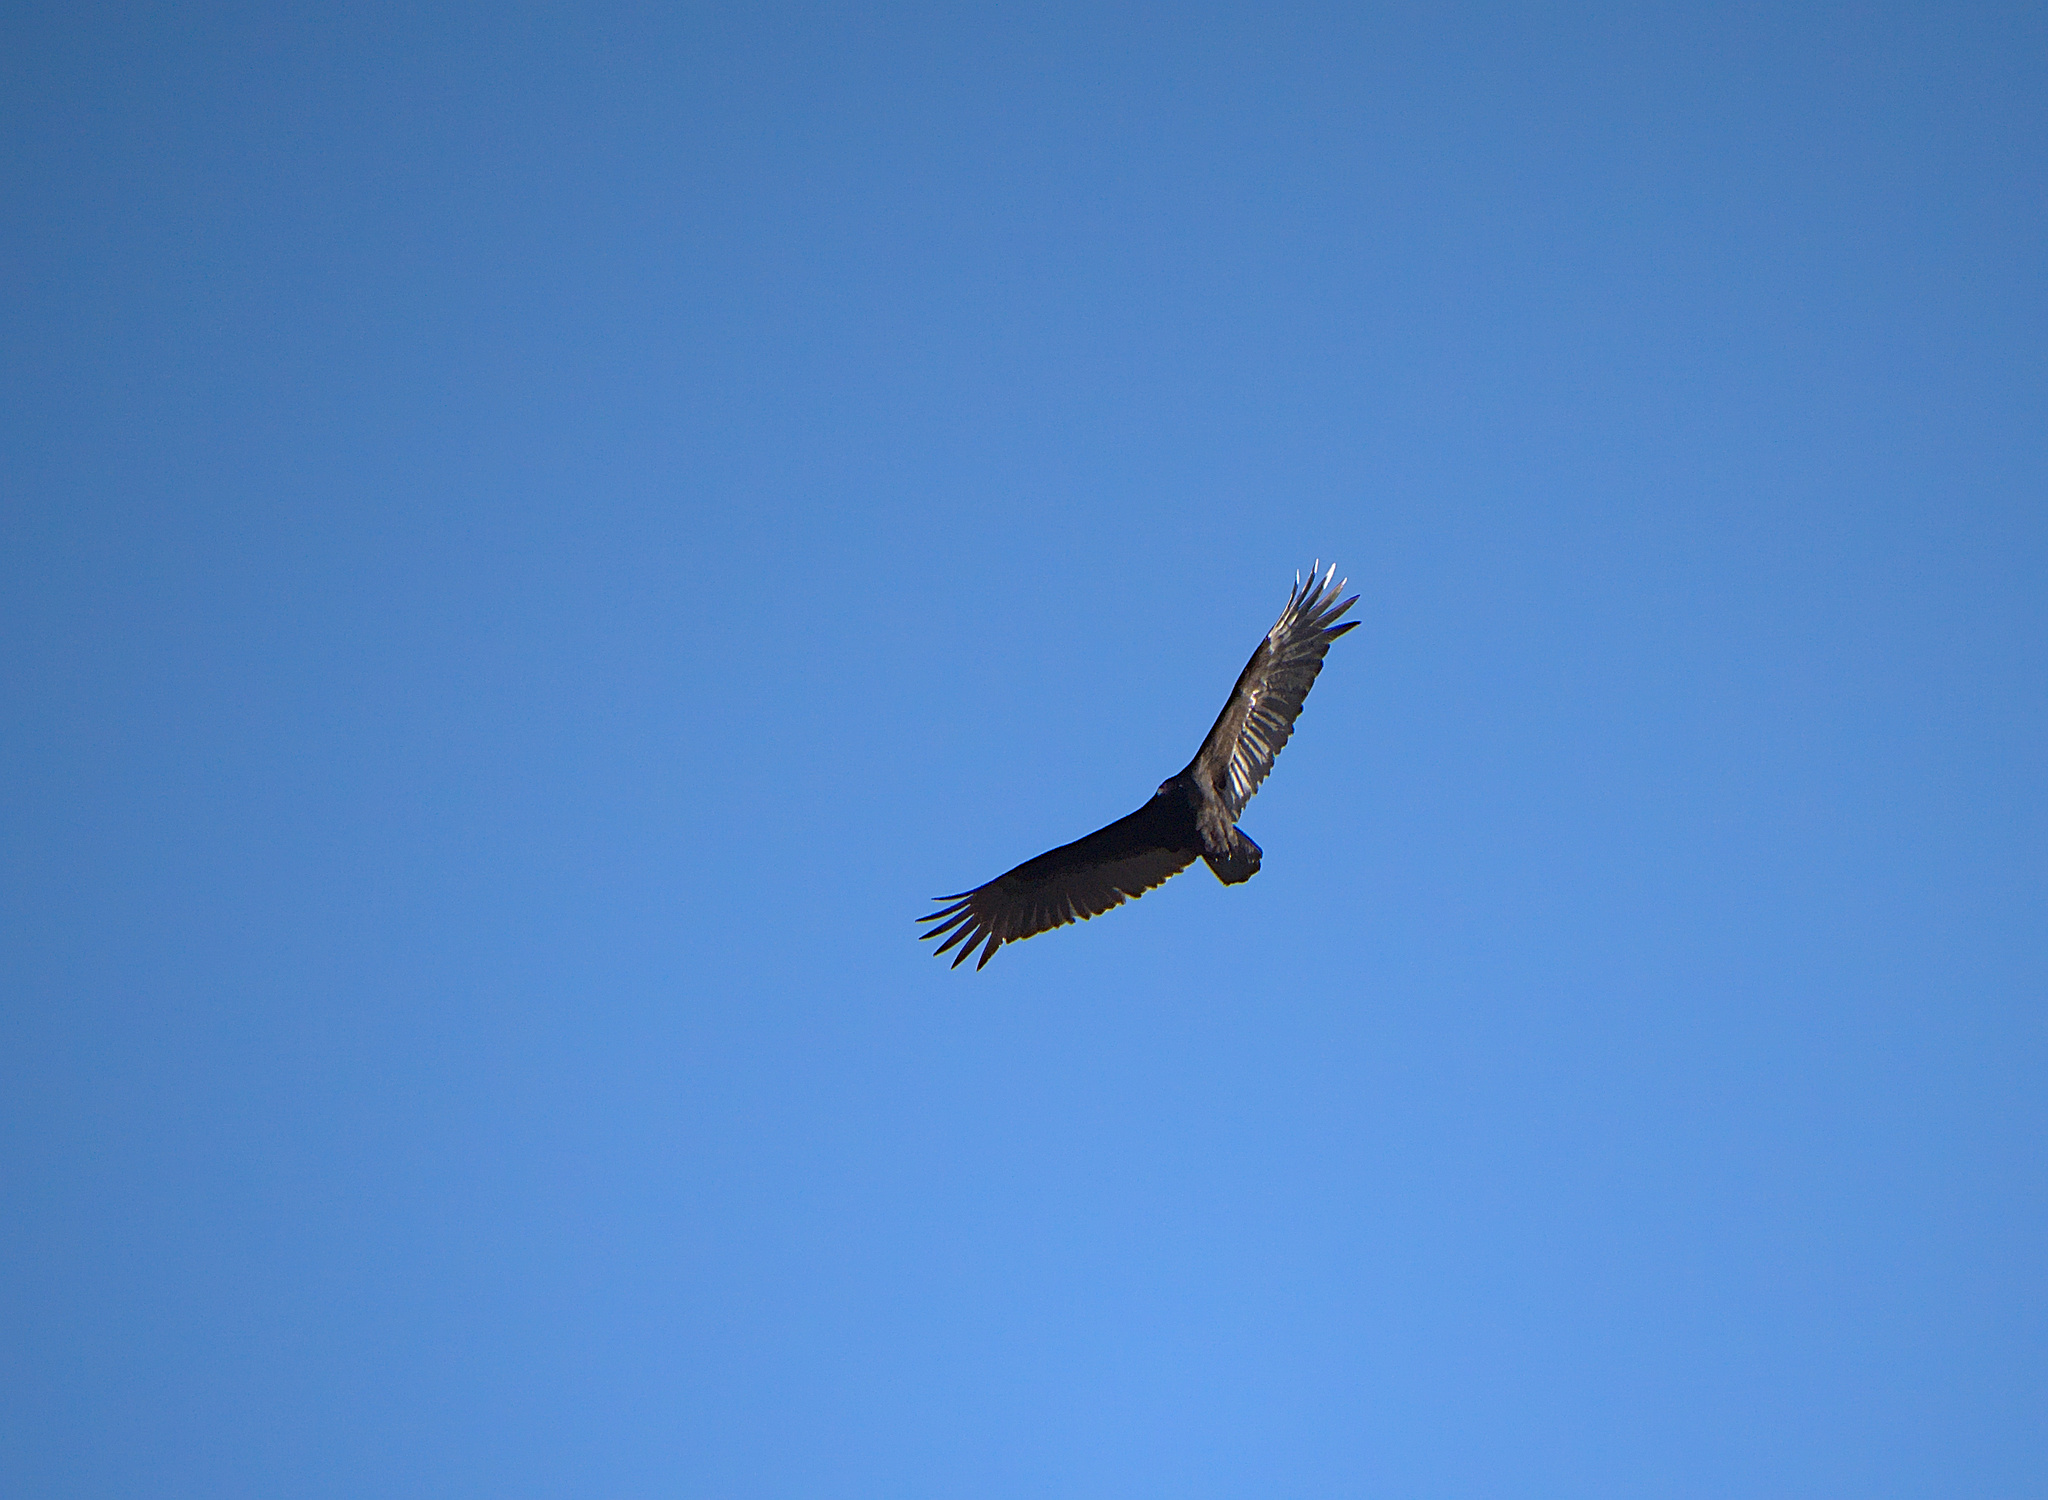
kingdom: Animalia
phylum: Chordata
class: Aves
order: Accipitriformes
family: Cathartidae
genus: Cathartes
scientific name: Cathartes aura
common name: Turkey vulture
